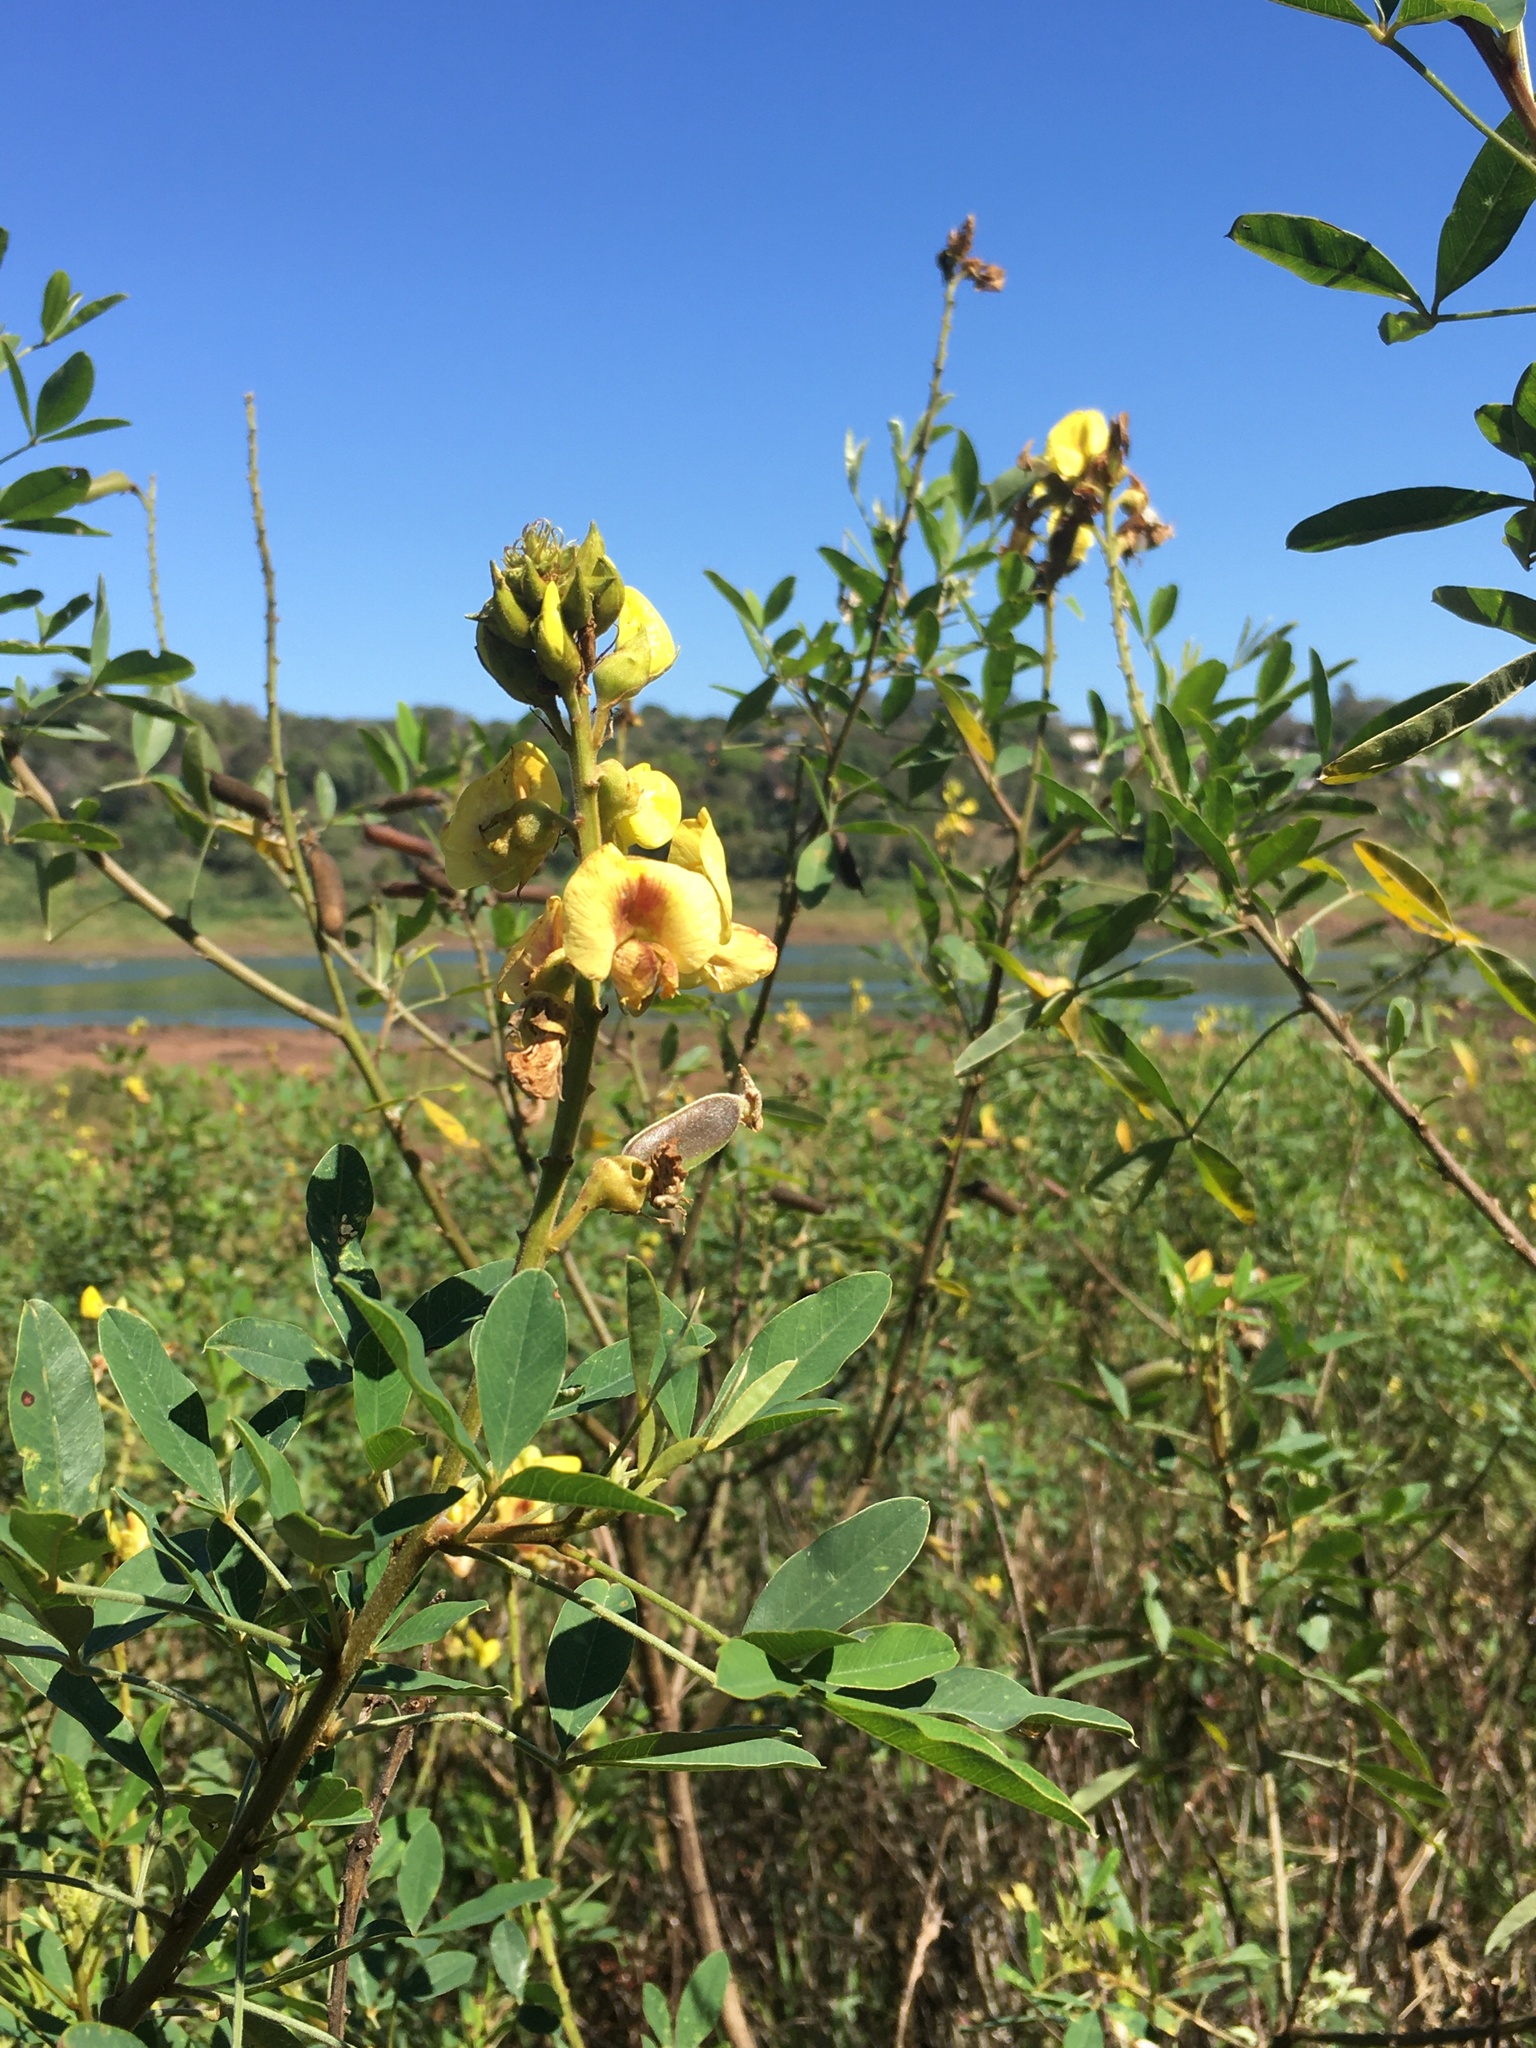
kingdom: Animalia
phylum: Arthropoda
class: Insecta
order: Hymenoptera
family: Andrenidae
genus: Oxaea
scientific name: Oxaea flavescens
